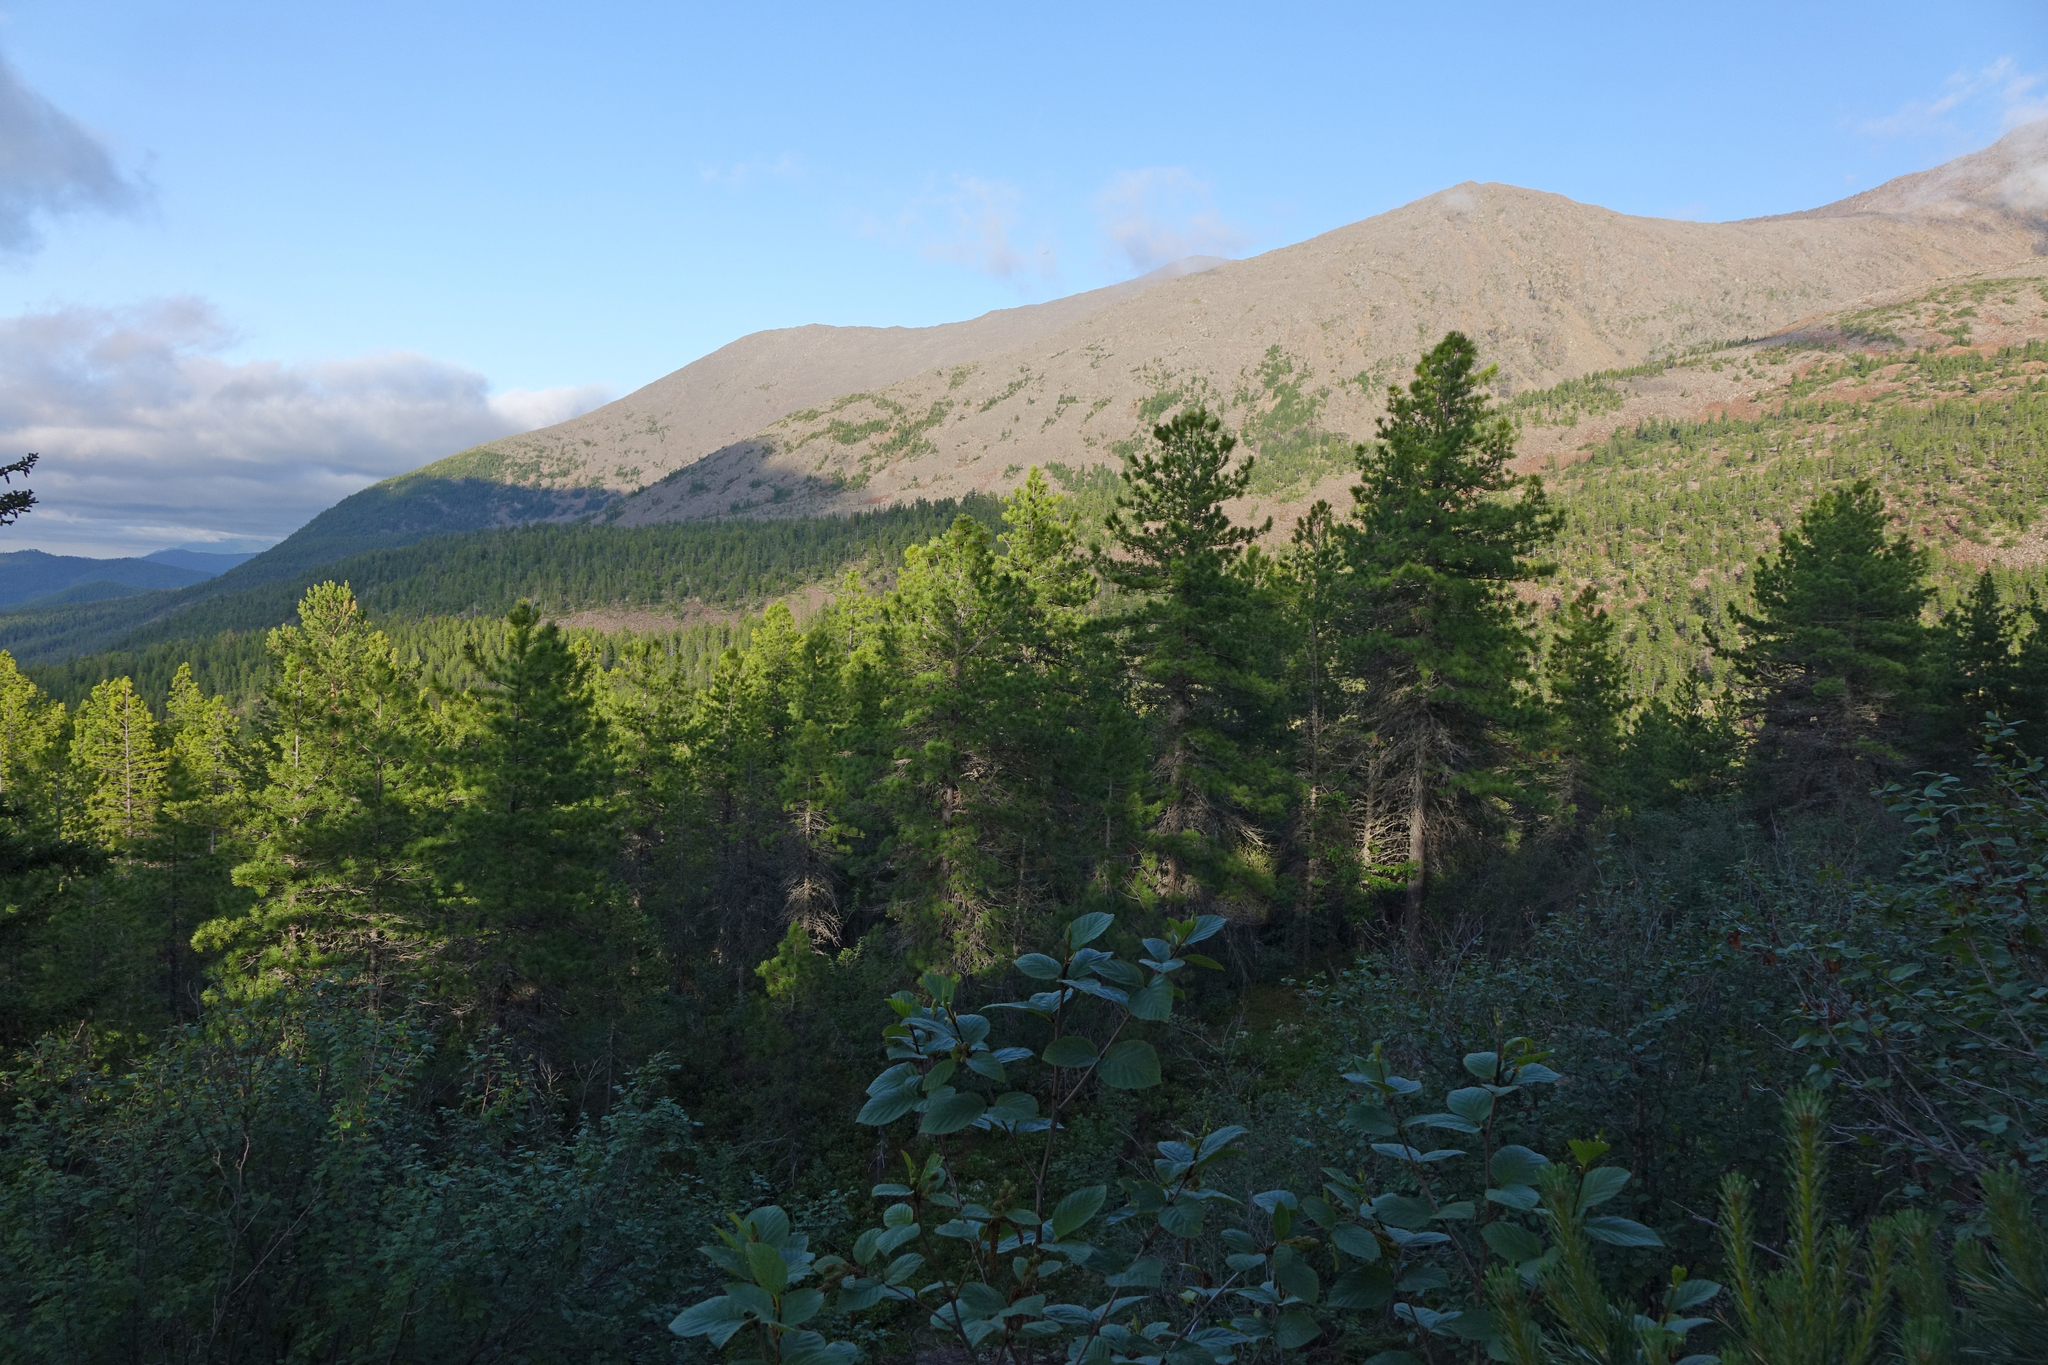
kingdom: Plantae
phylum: Tracheophyta
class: Pinopsida
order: Pinales
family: Pinaceae
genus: Pinus
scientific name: Pinus sibirica
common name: Siberian pine
